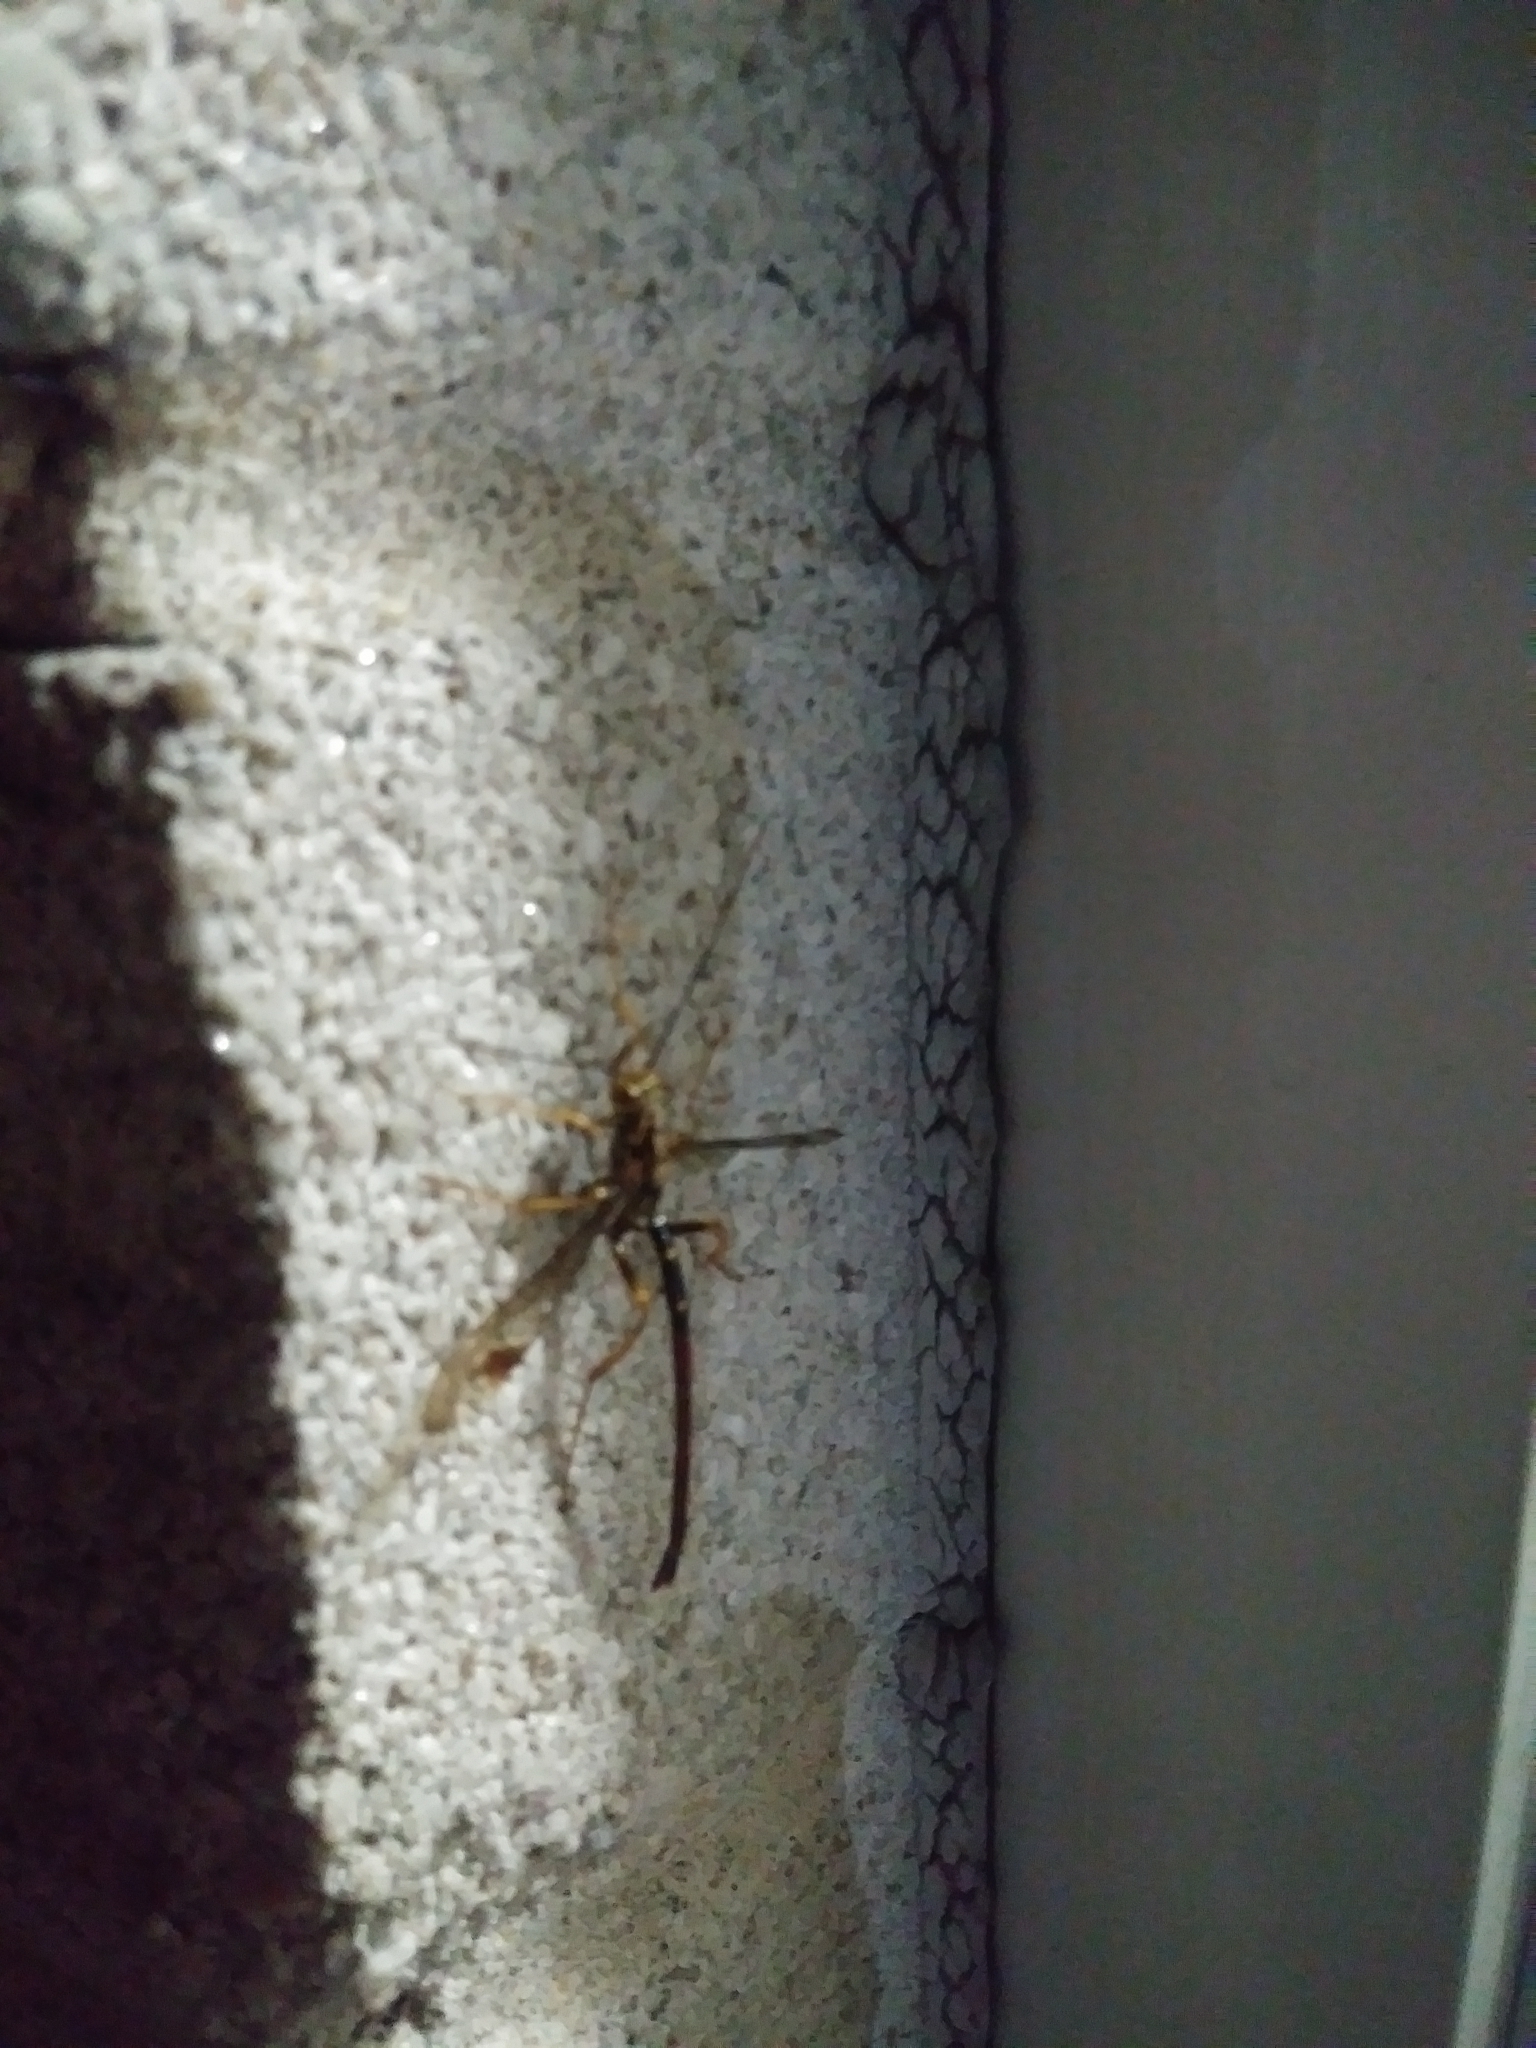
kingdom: Animalia
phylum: Arthropoda
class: Insecta
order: Hymenoptera
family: Ichneumonidae
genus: Megarhyssa
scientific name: Megarhyssa macrura
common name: Long-tailed giant ichneumonid wasp
